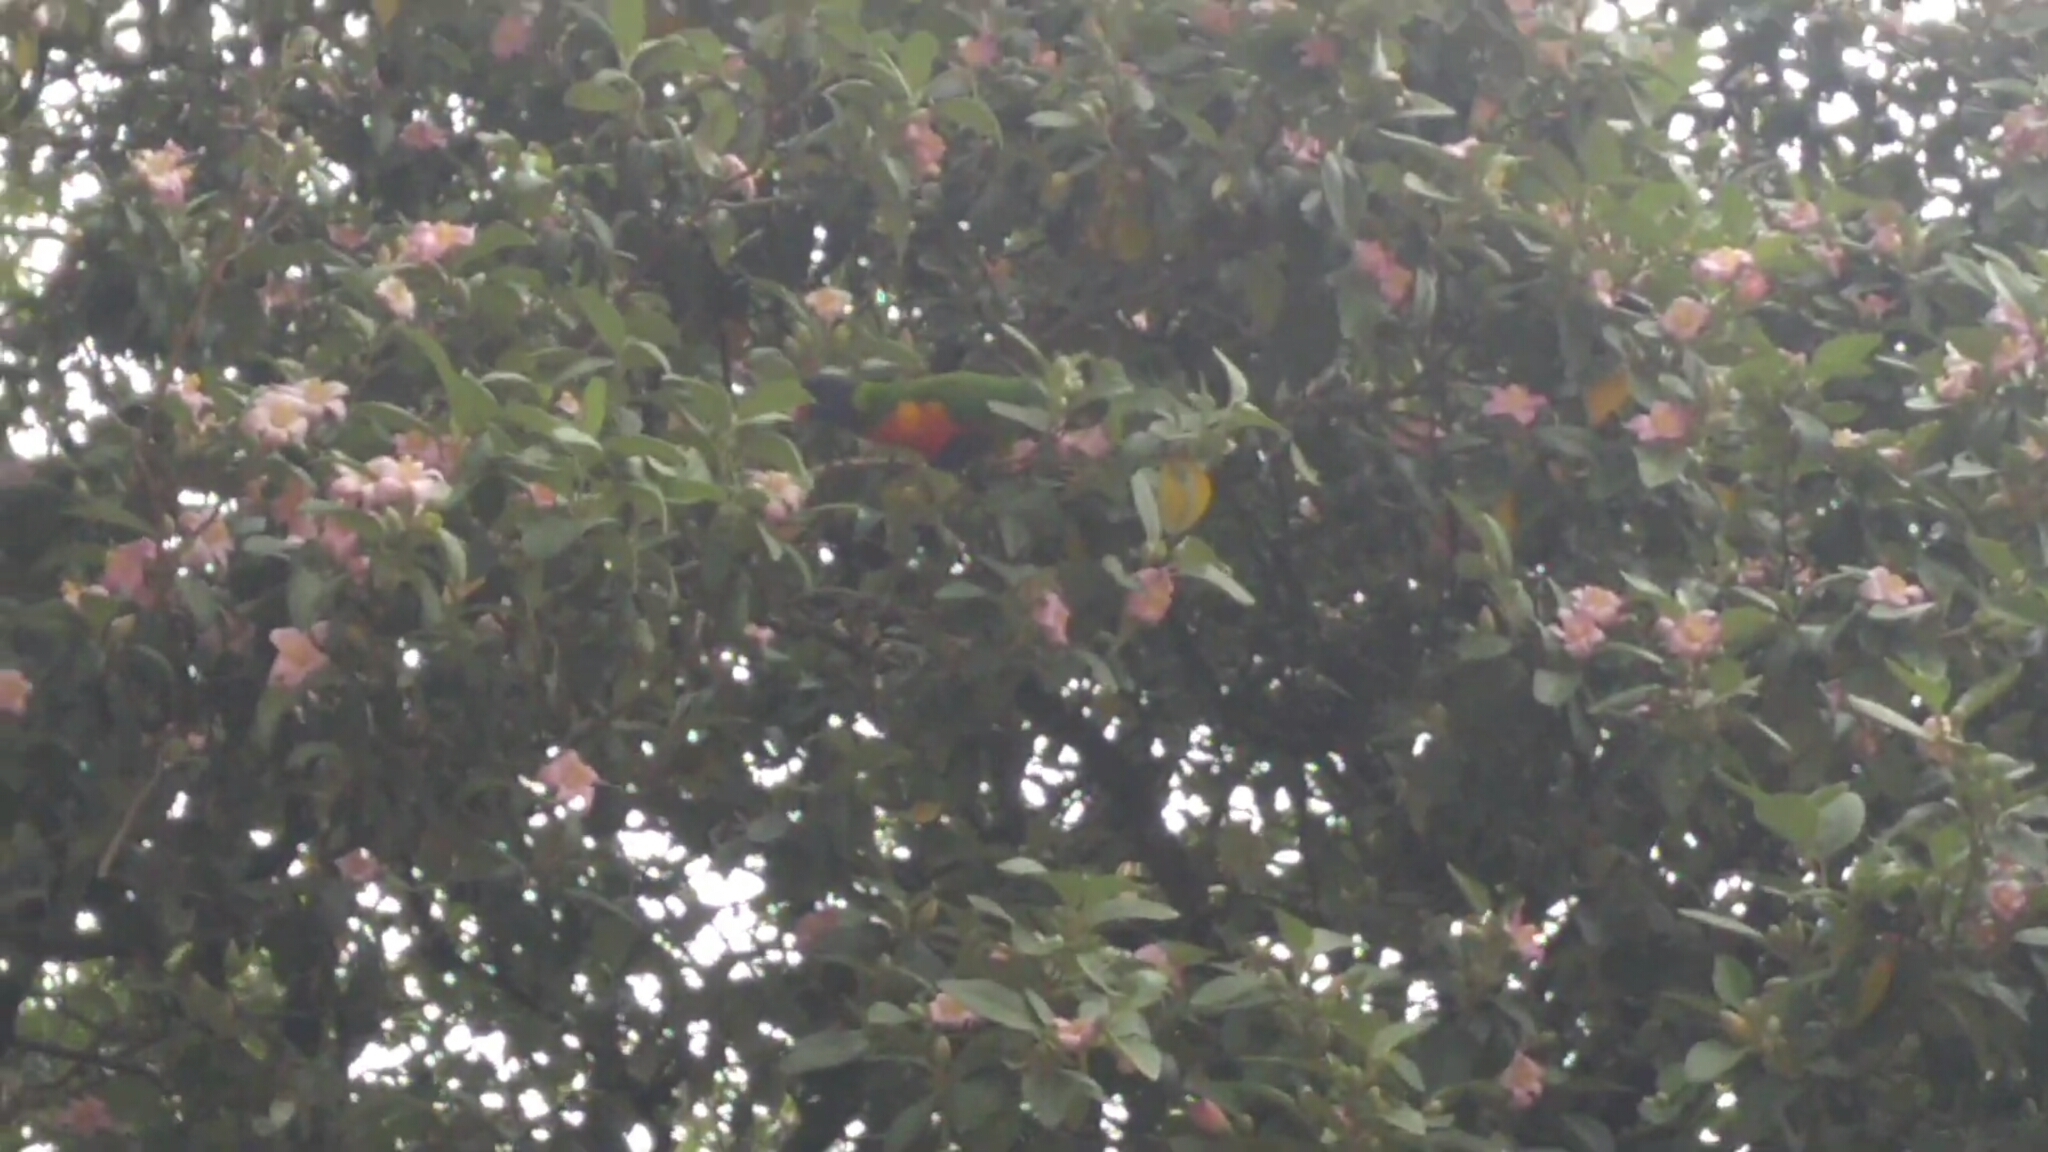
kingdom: Animalia
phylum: Chordata
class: Aves
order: Psittaciformes
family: Psittacidae
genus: Trichoglossus
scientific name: Trichoglossus haematodus
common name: Coconut lorikeet
